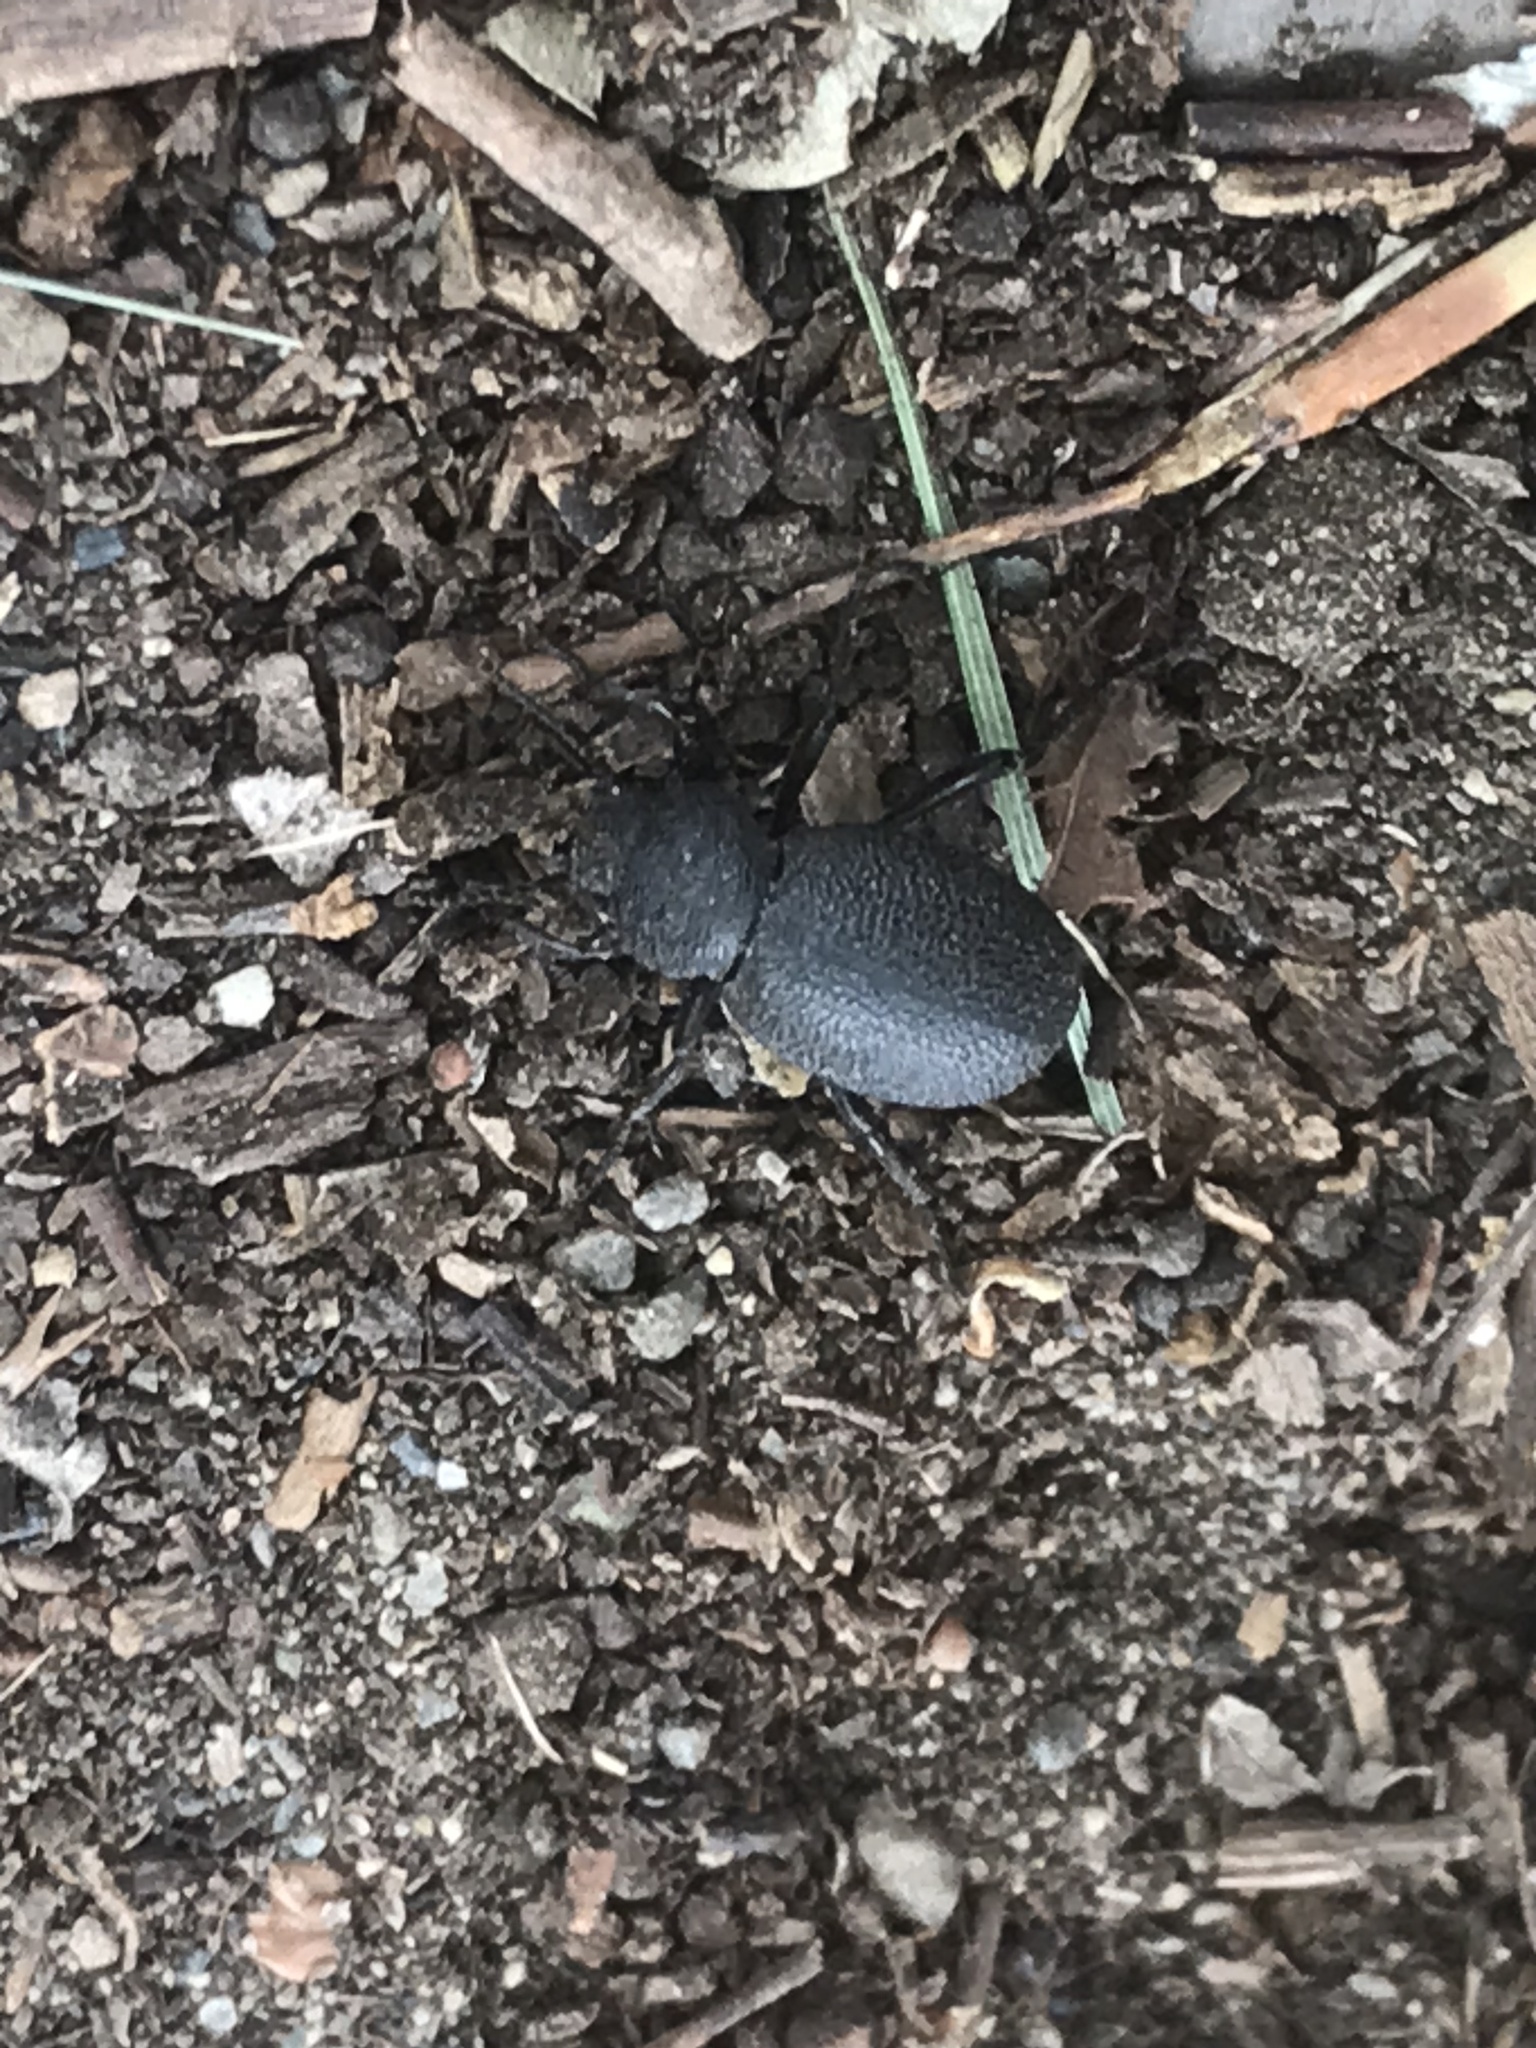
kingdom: Animalia
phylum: Arthropoda
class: Insecta
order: Coleoptera
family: Tenebrionidae
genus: Eleodes
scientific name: Eleodes pimelioides
